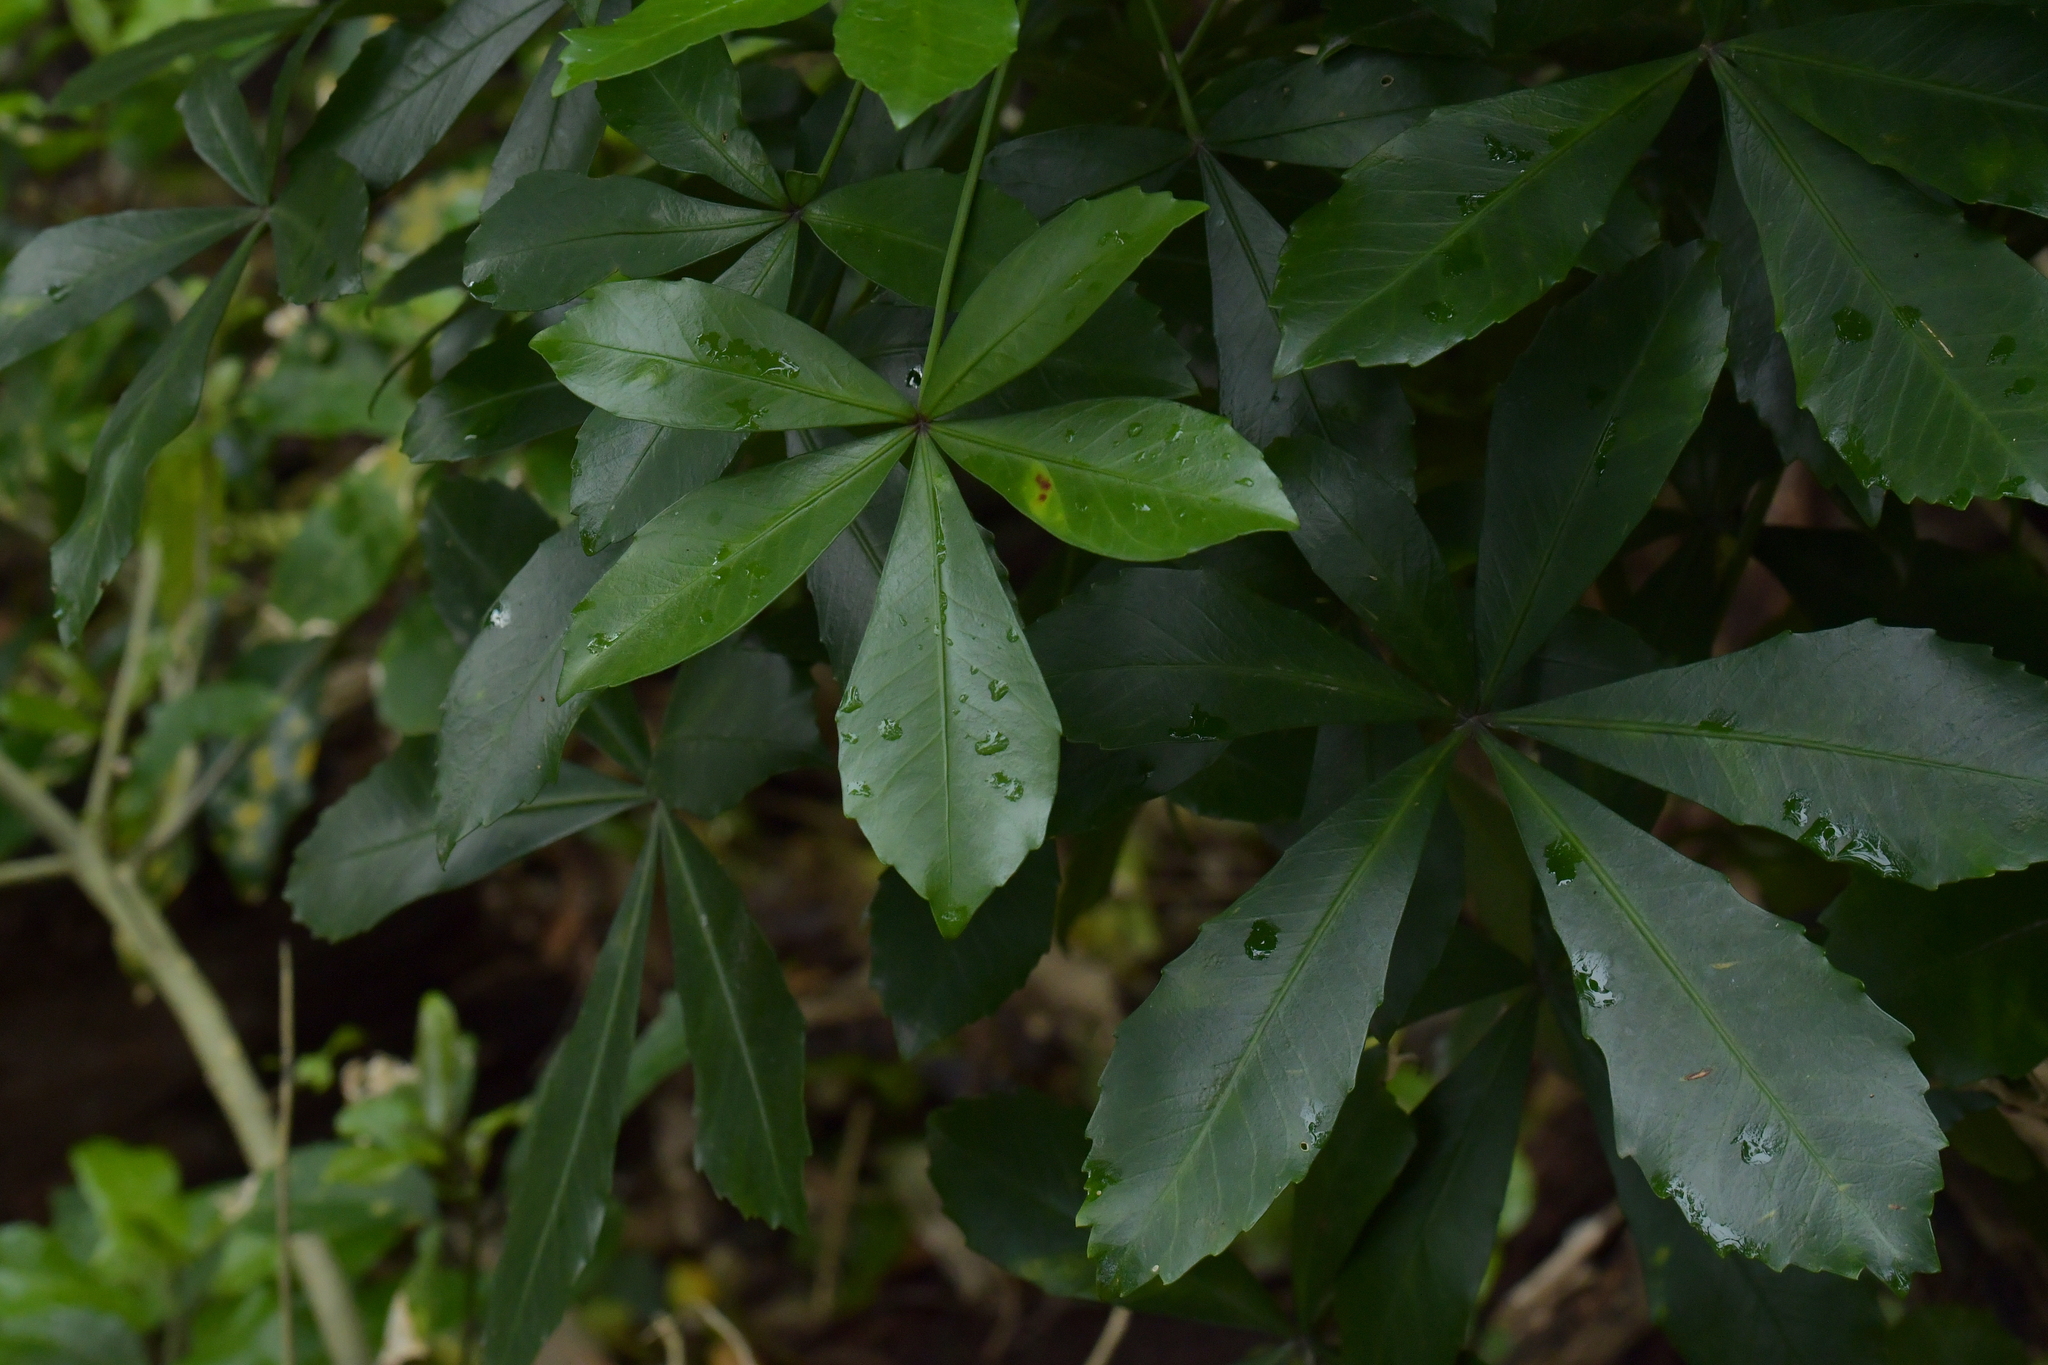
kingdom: Plantae
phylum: Tracheophyta
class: Magnoliopsida
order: Apiales
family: Araliaceae
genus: Pseudopanax
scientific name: Pseudopanax lessonii
